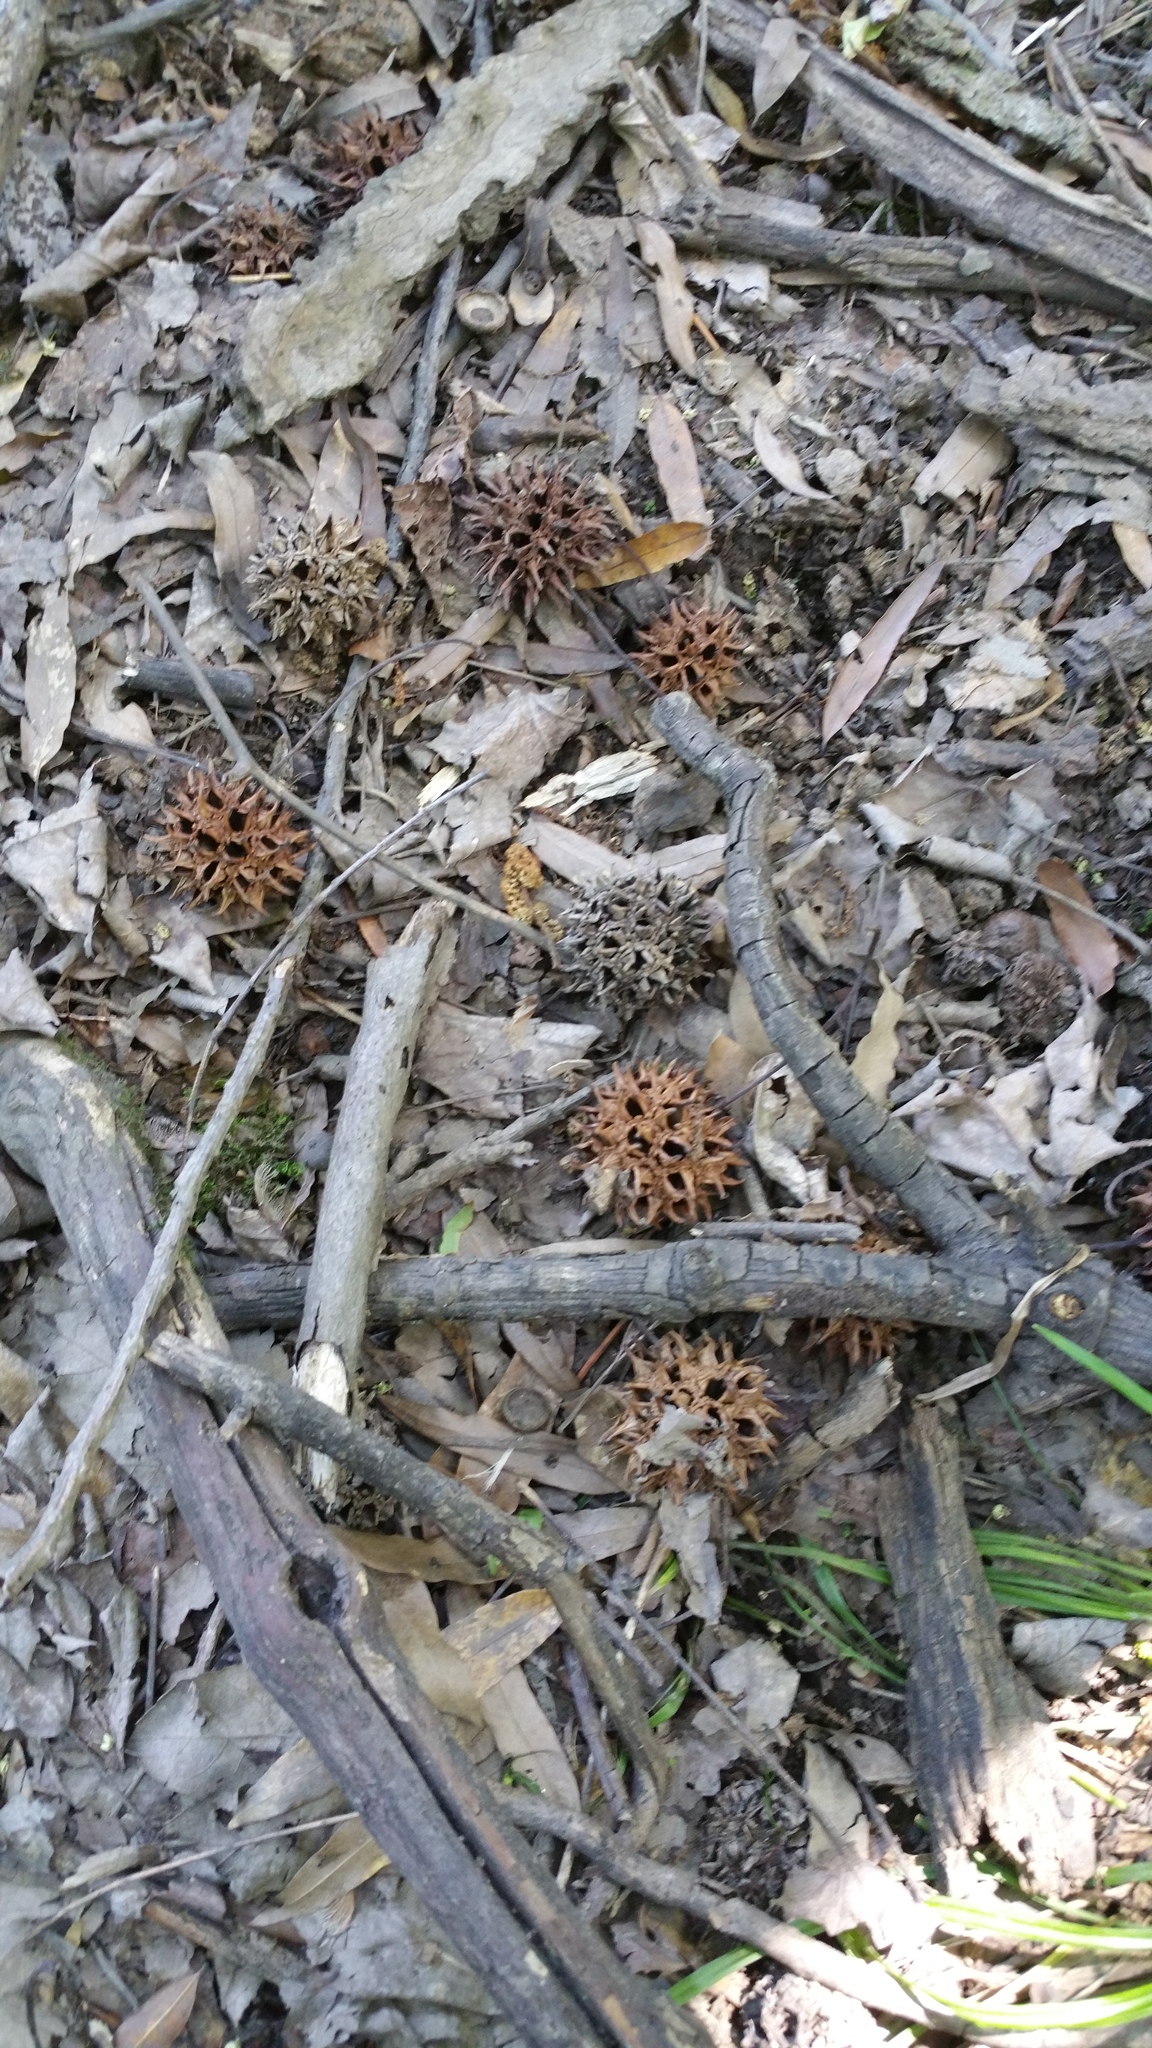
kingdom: Plantae
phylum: Tracheophyta
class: Magnoliopsida
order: Saxifragales
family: Altingiaceae
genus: Liquidambar
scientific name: Liquidambar styraciflua
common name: Sweet gum
